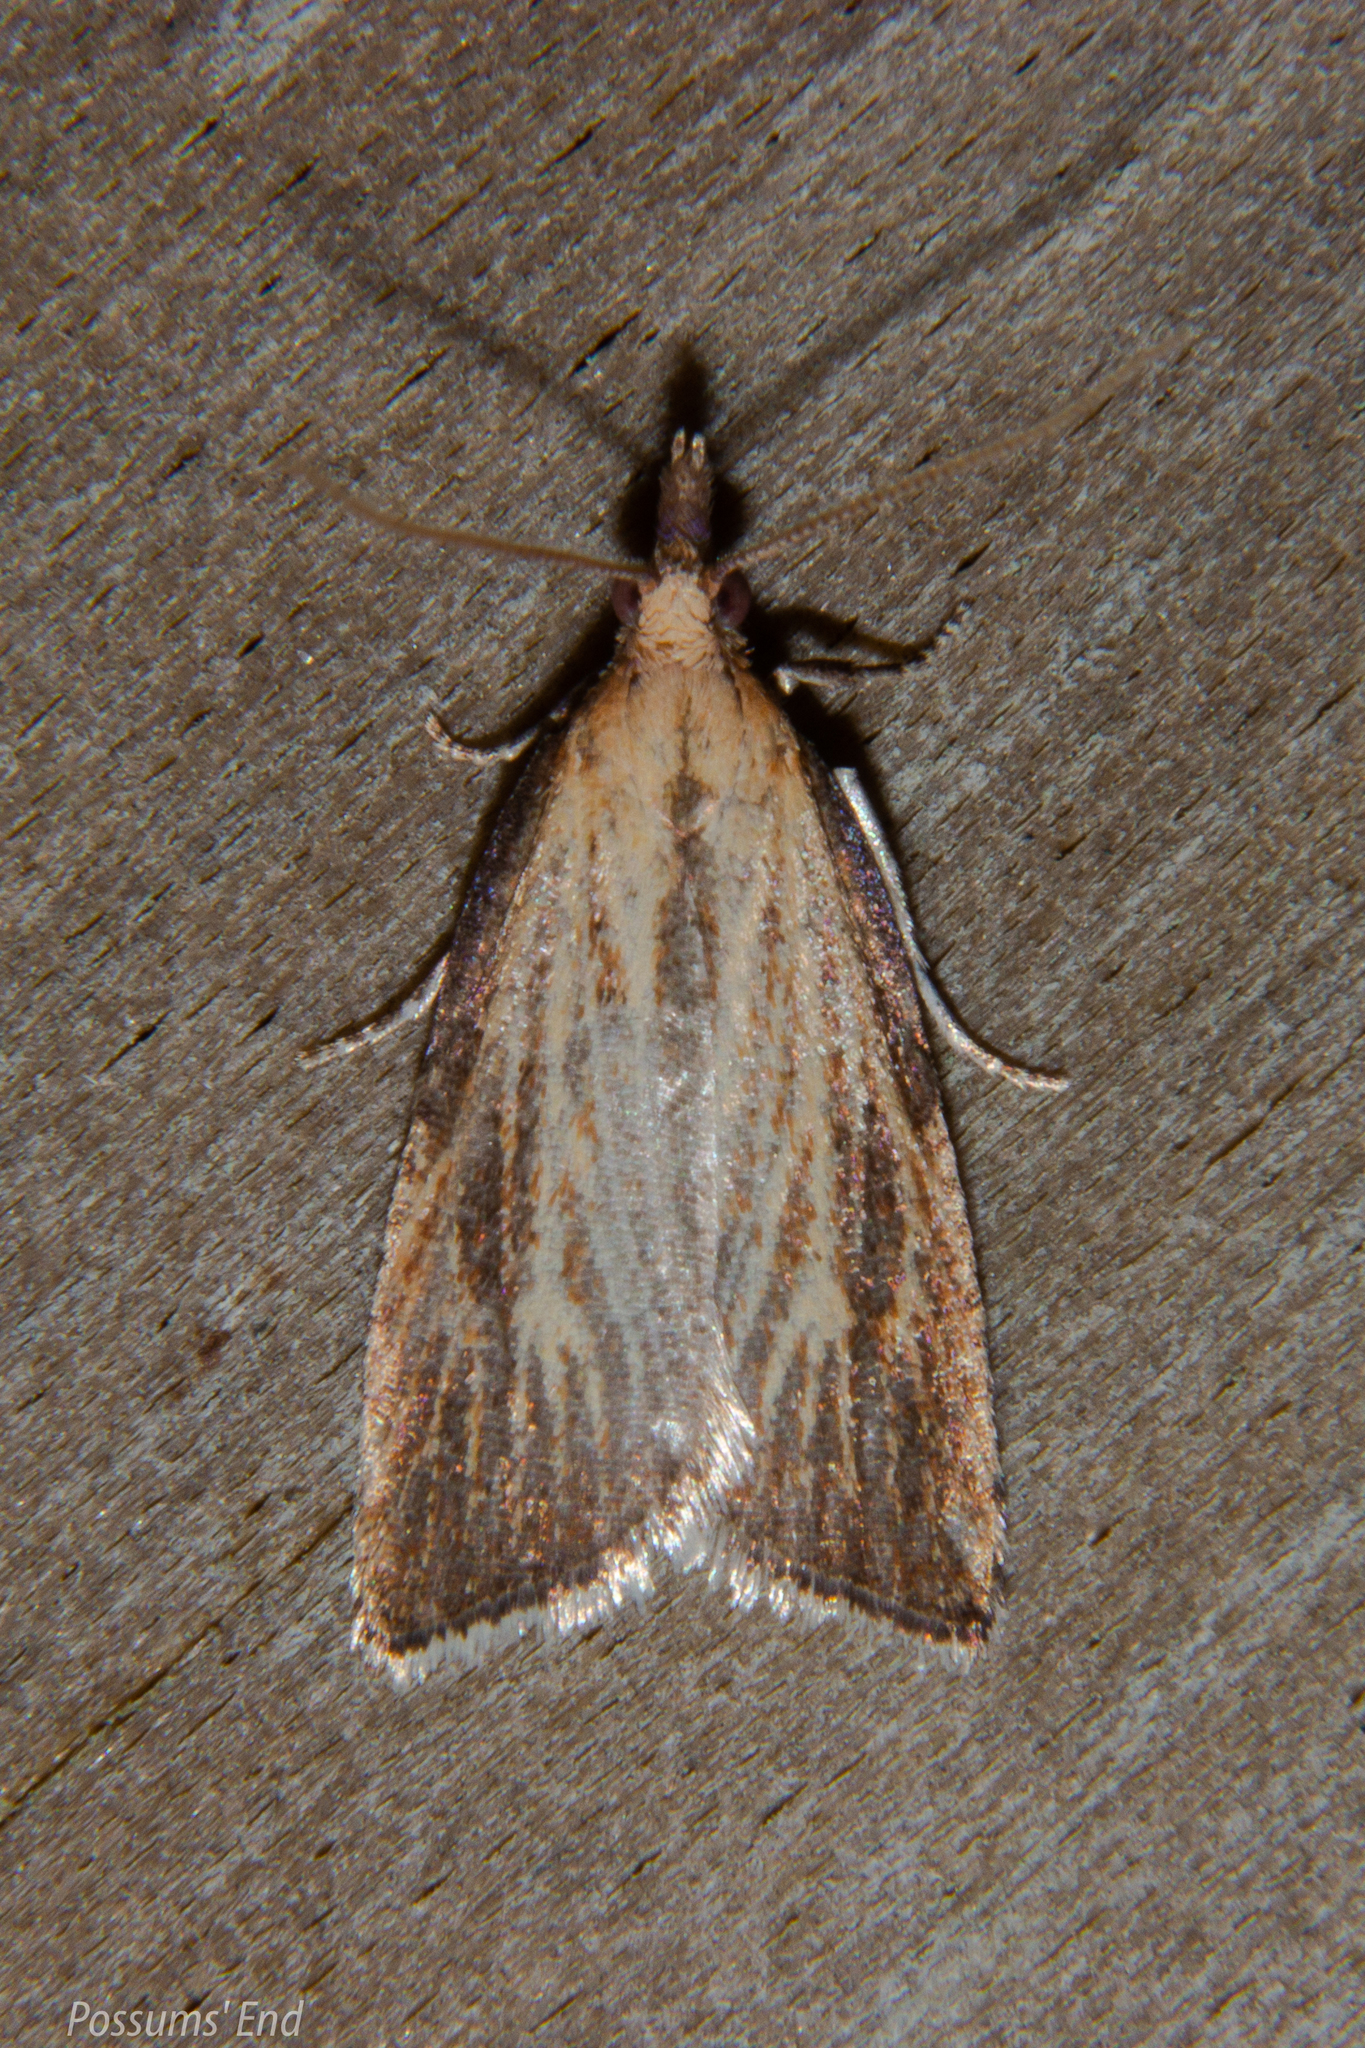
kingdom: Animalia
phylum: Arthropoda
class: Insecta
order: Lepidoptera
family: Tortricidae
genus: Catamacta
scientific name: Catamacta lotinana
